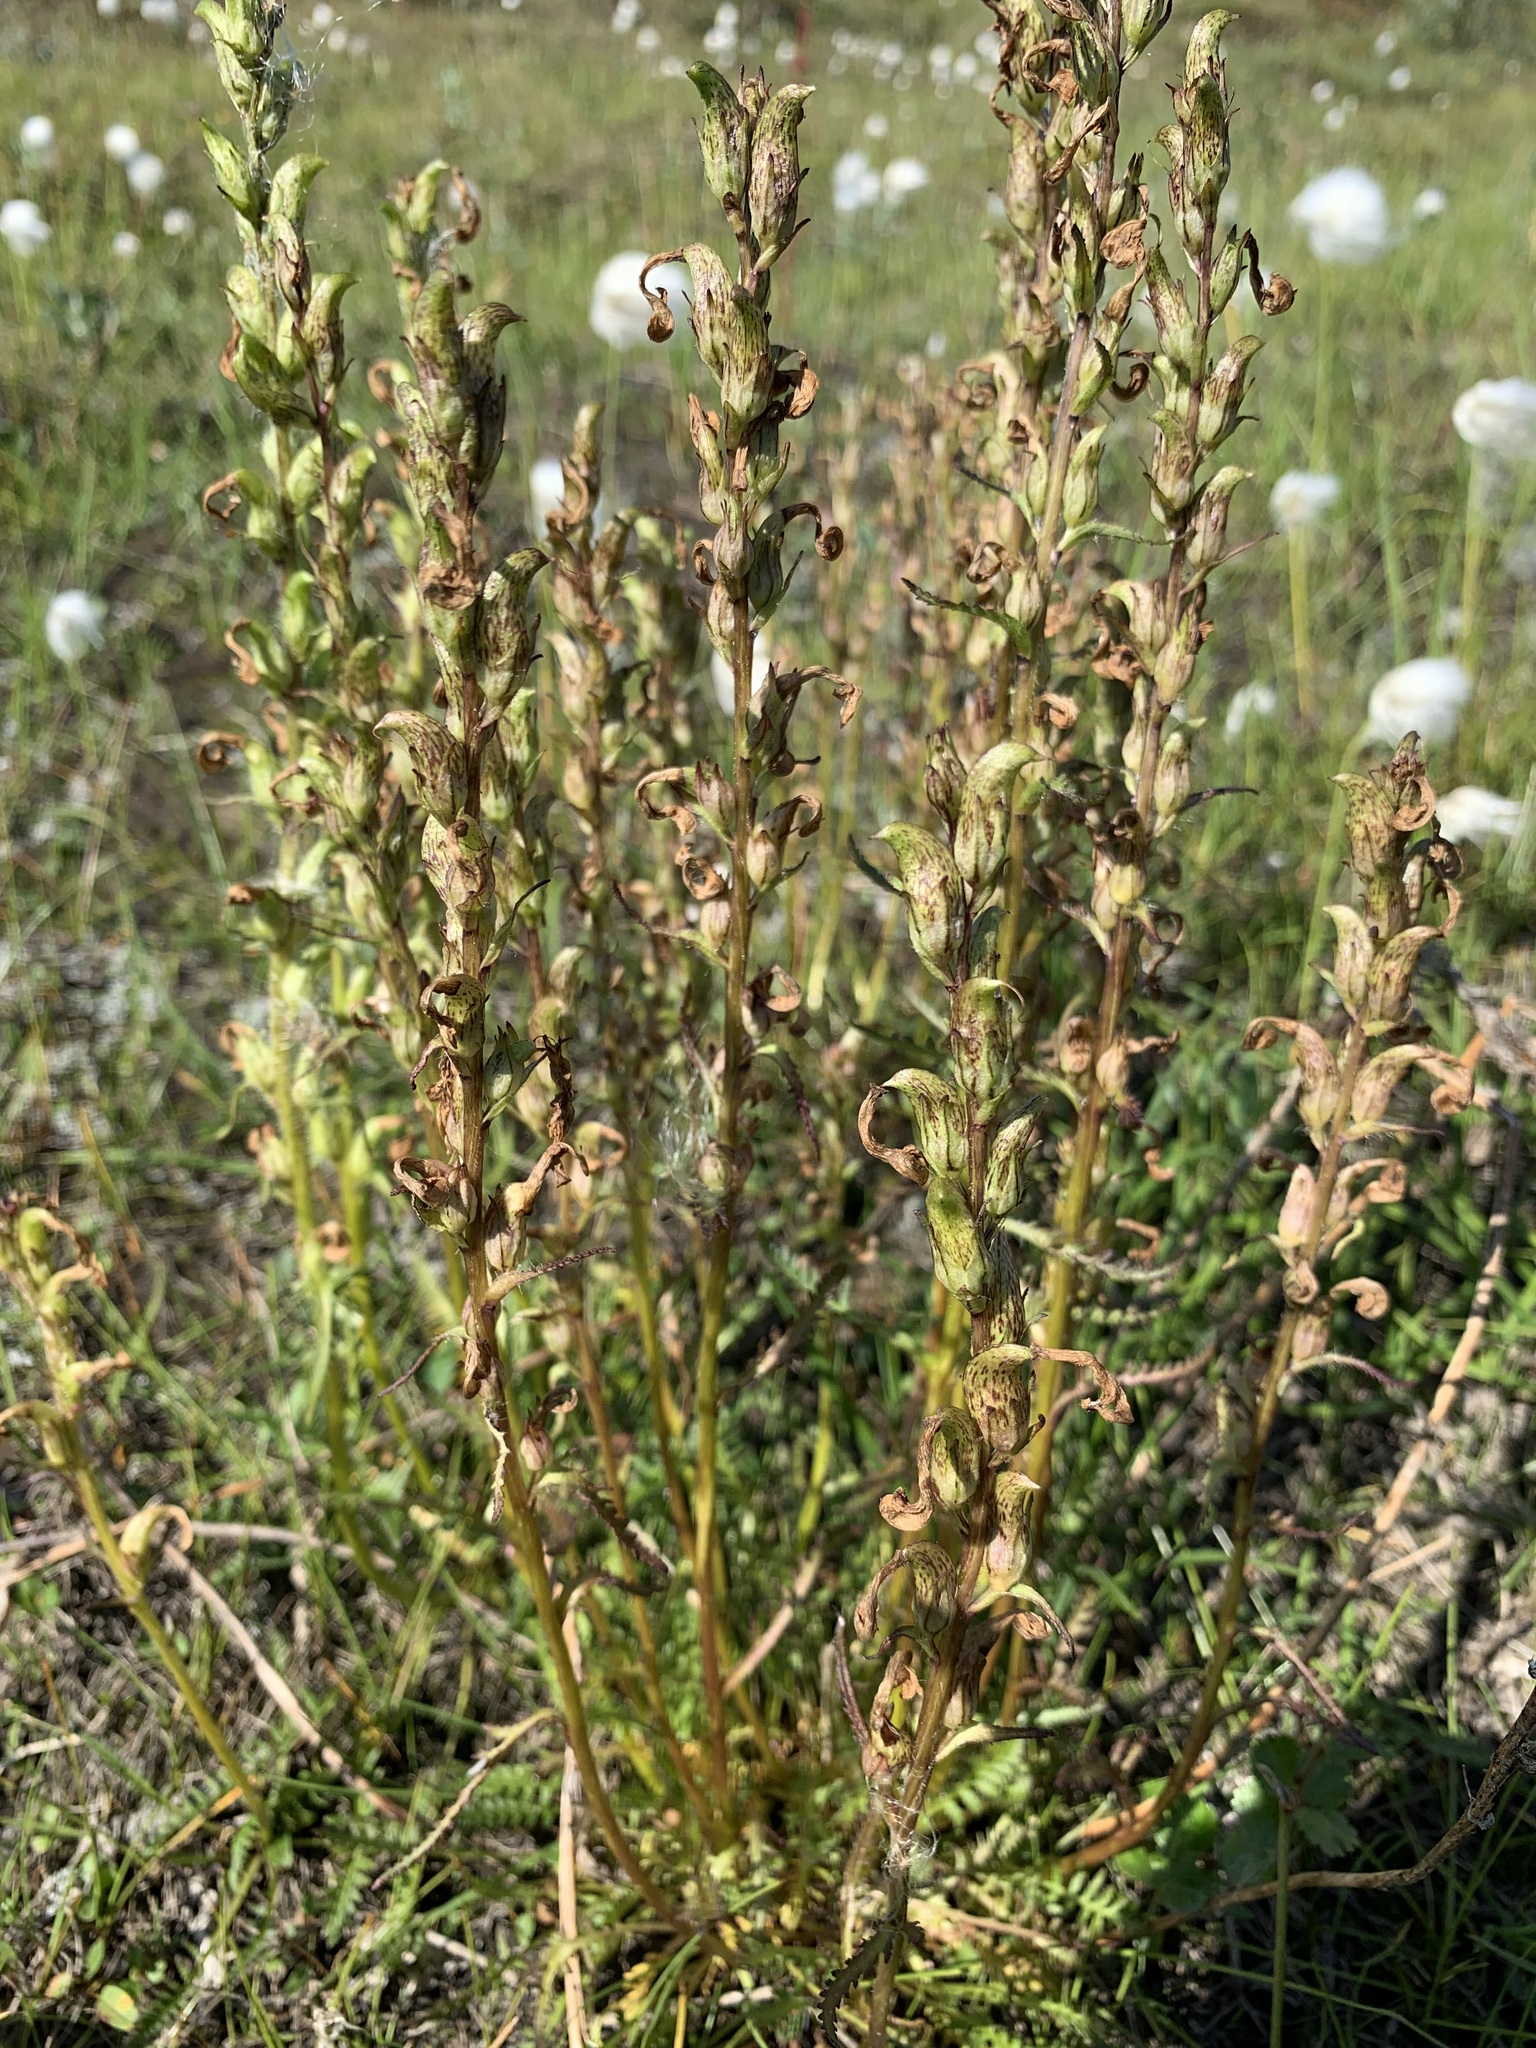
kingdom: Plantae
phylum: Tracheophyta
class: Magnoliopsida
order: Lamiales
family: Orobanchaceae
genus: Pedicularis
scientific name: Pedicularis sudetica
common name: Sudeten lousewort
